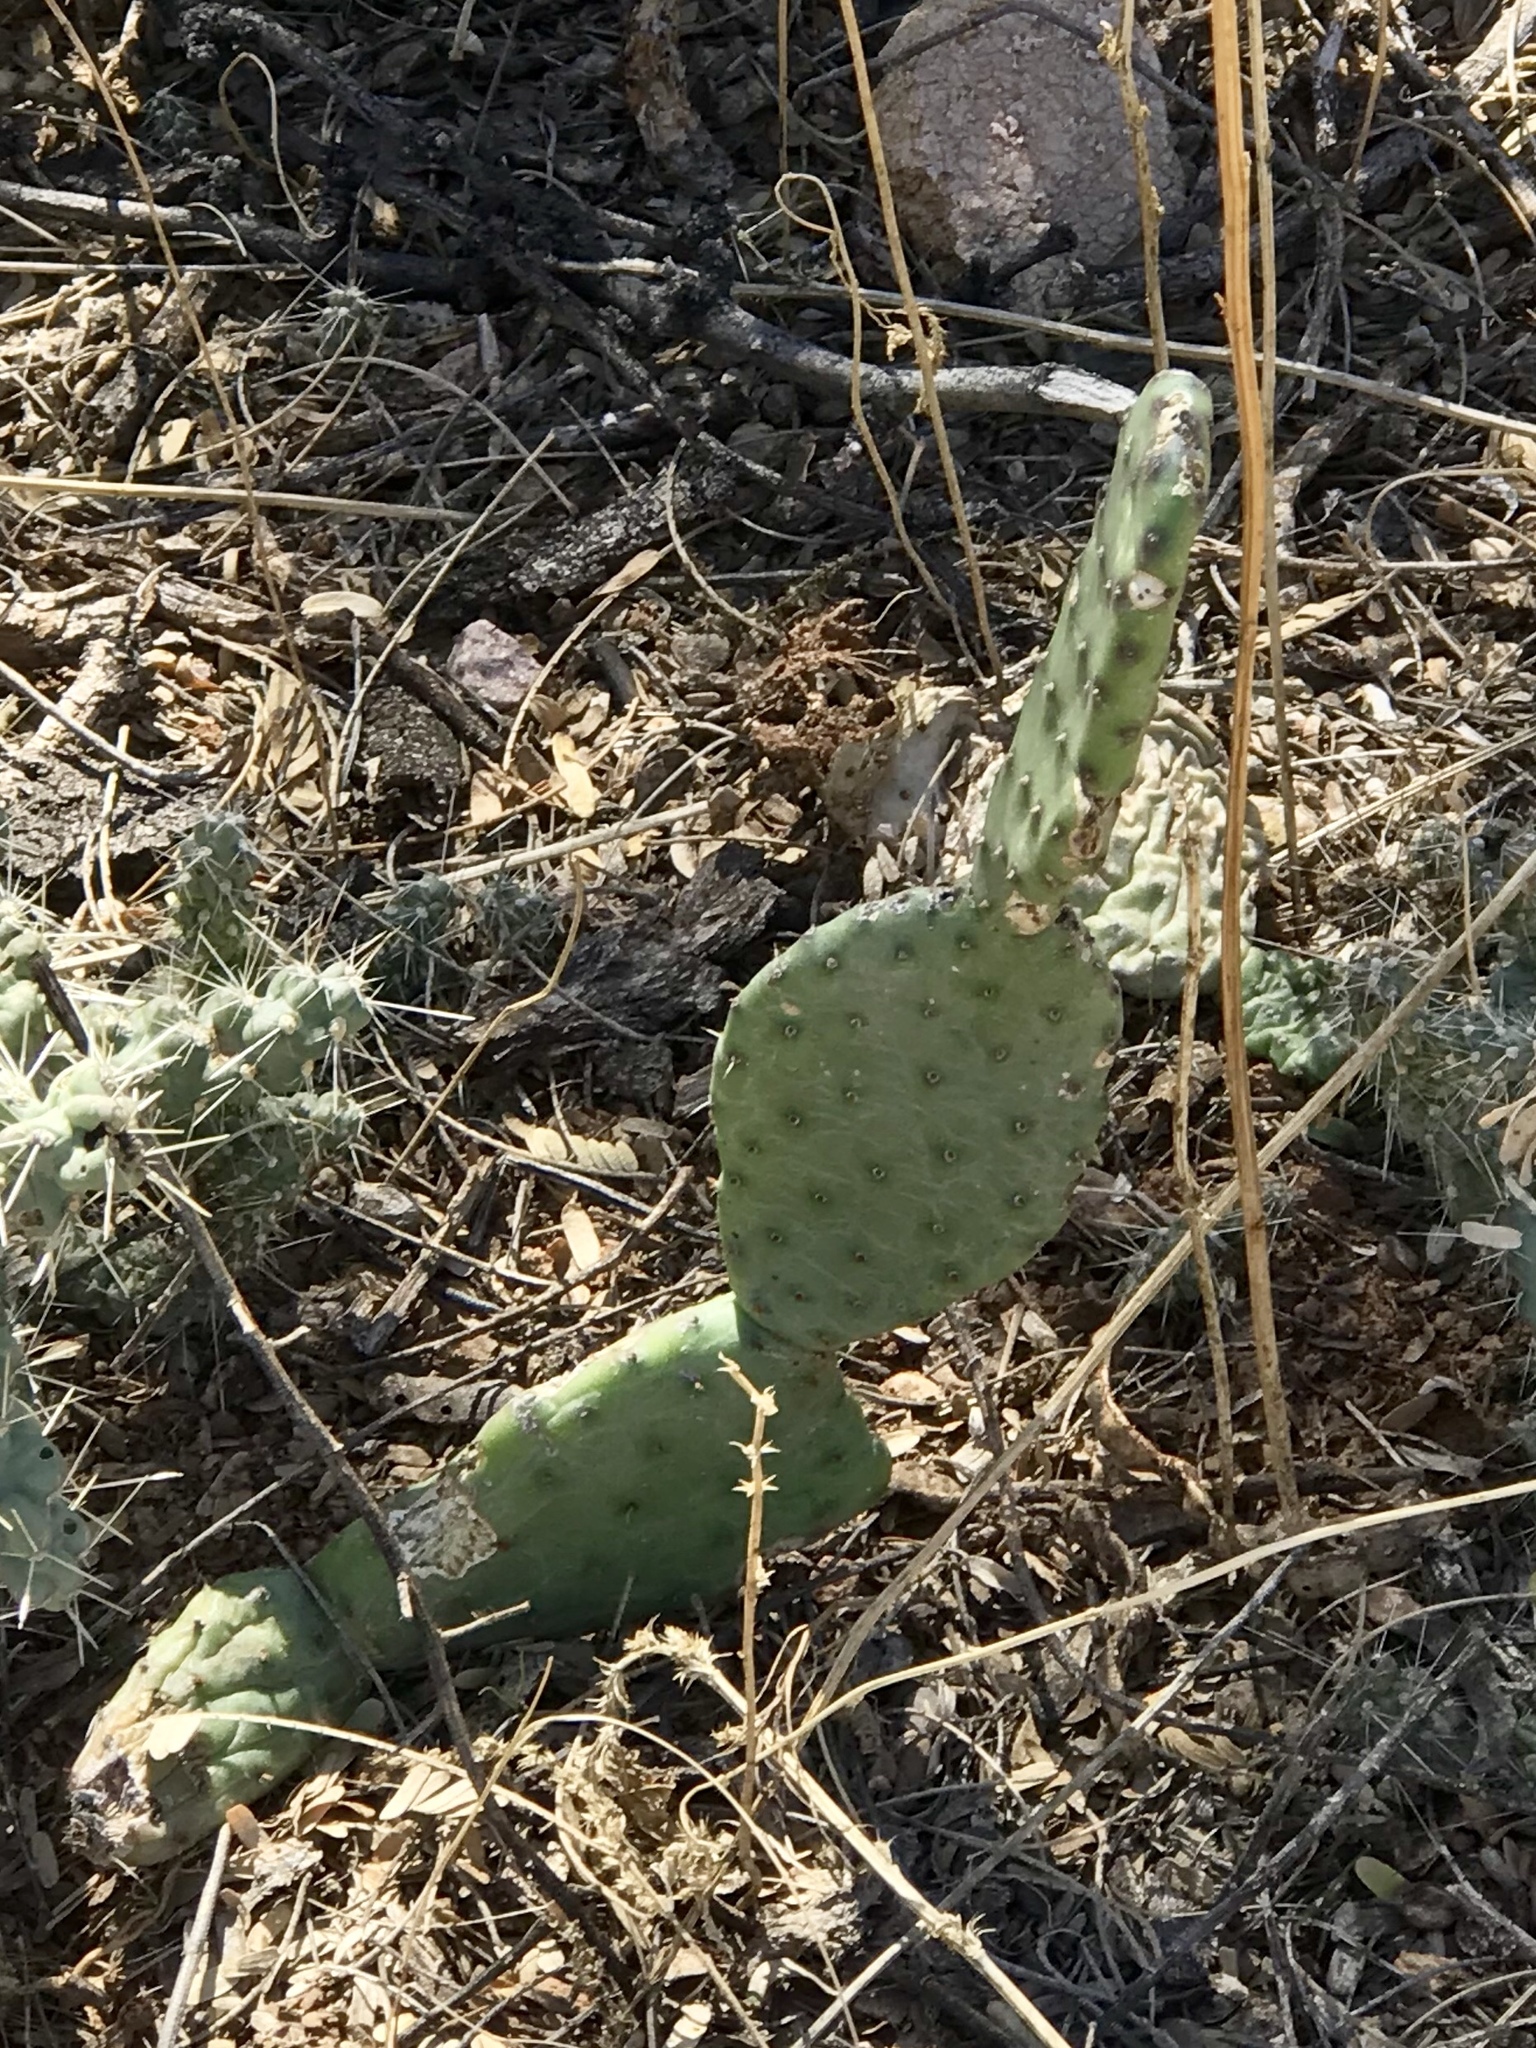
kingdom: Plantae
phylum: Tracheophyta
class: Magnoliopsida
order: Caryophyllales
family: Cactaceae
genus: Opuntia
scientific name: Opuntia chlorotica
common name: Dollar-joint prickly-pear
